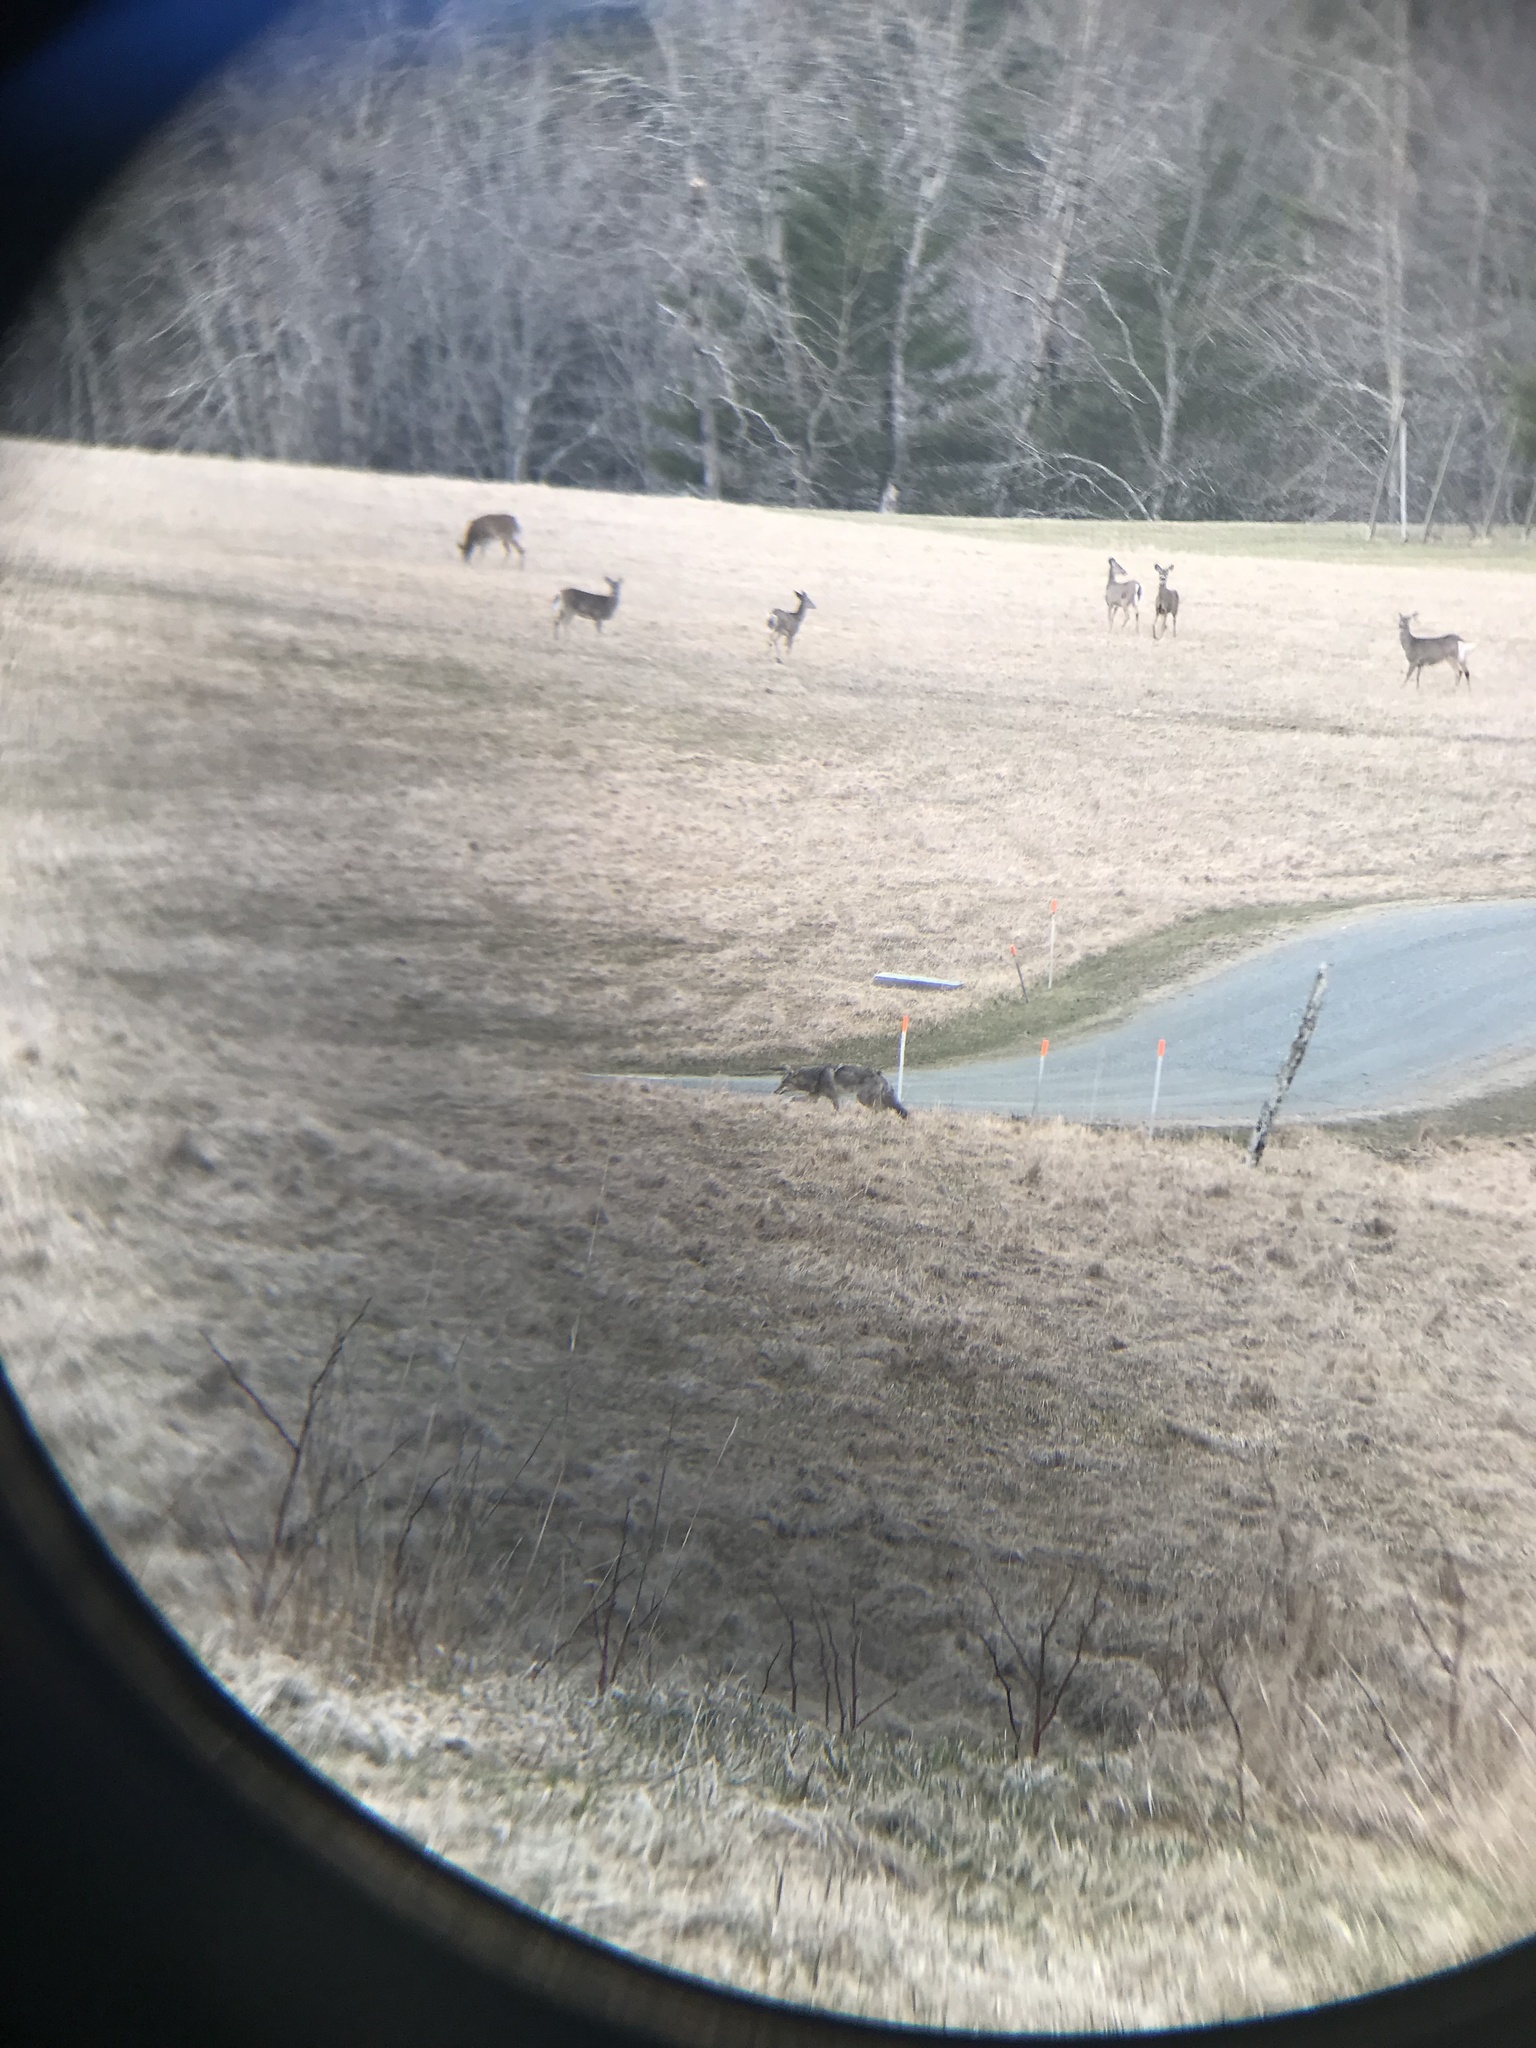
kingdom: Animalia
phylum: Chordata
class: Mammalia
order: Carnivora
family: Canidae
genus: Canis
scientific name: Canis latrans
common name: Coyote
